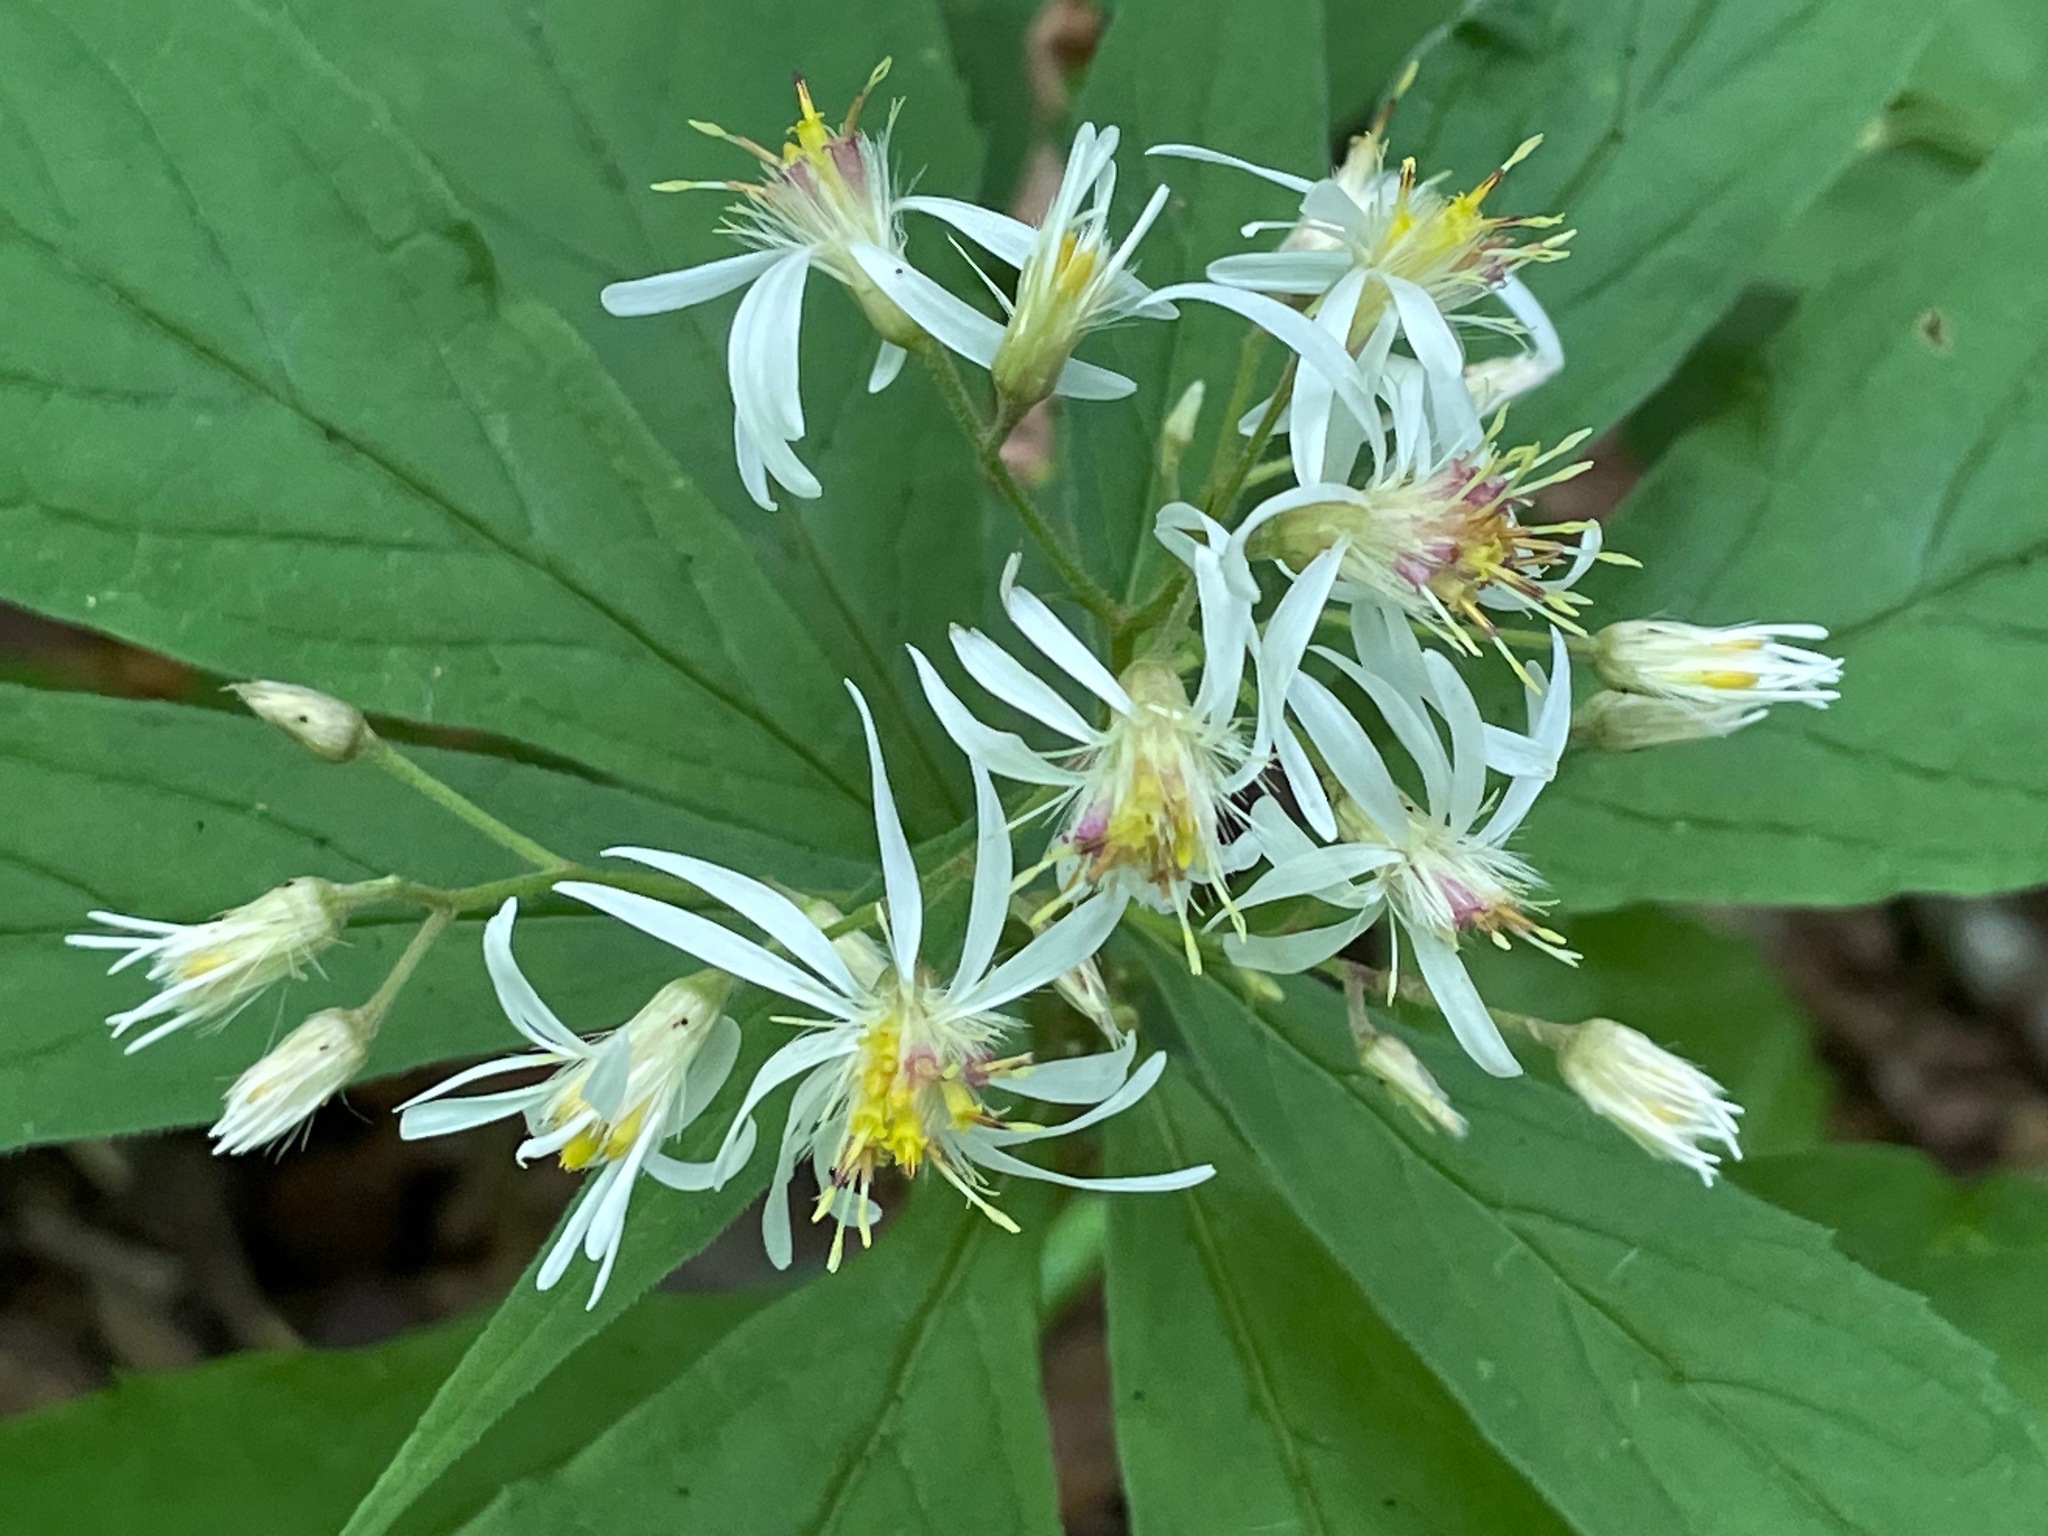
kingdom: Plantae
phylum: Tracheophyta
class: Magnoliopsida
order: Asterales
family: Asteraceae
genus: Oclemena
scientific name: Oclemena acuminata
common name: Mountain aster
